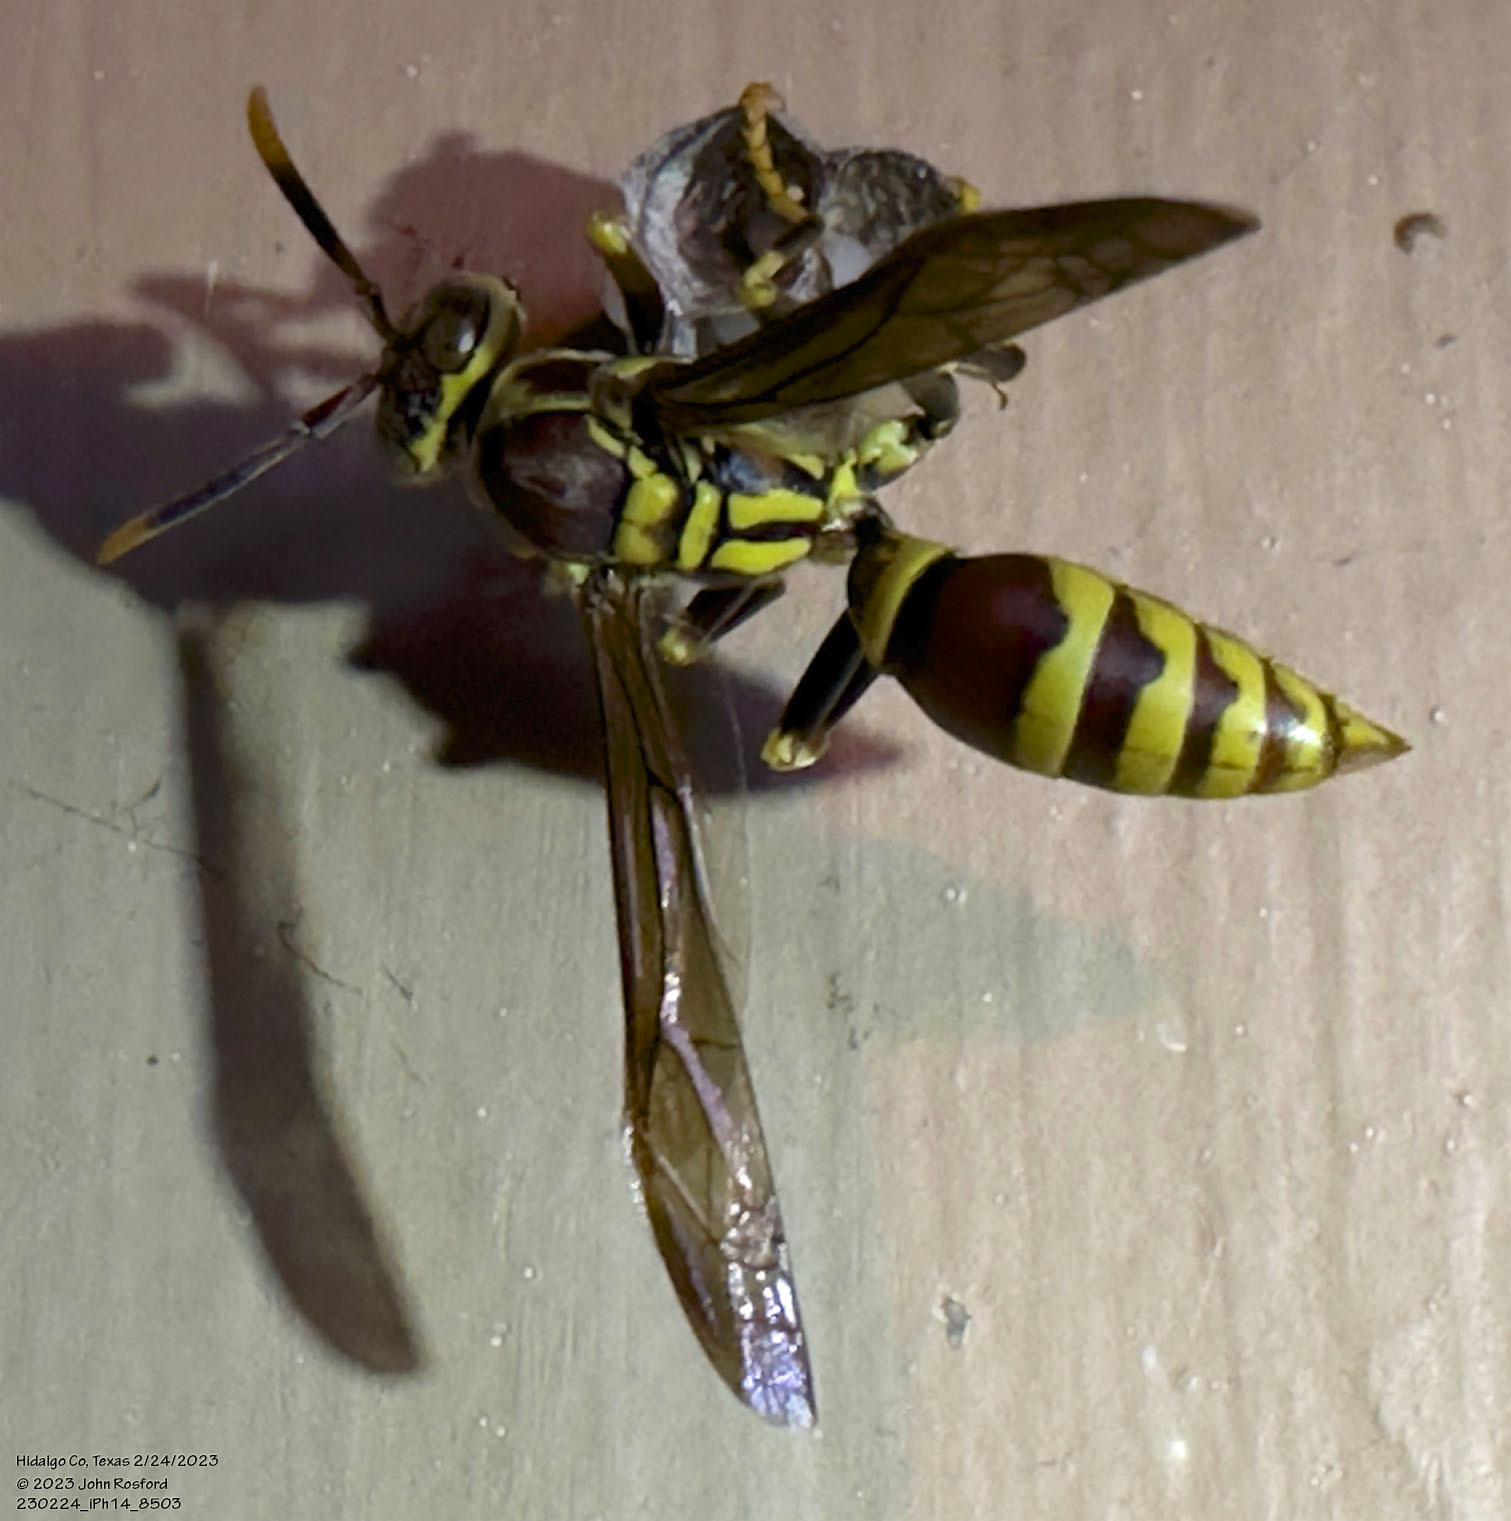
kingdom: Animalia
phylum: Arthropoda
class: Insecta
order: Hymenoptera
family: Eumenidae
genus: Polistes
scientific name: Polistes exclamans
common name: Paper wasp
